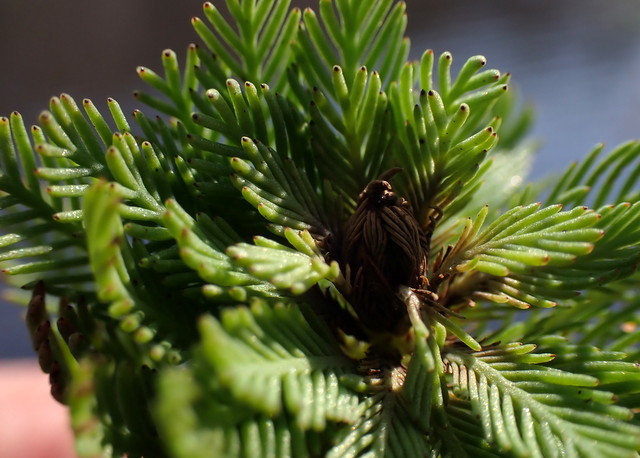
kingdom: Plantae
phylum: Tracheophyta
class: Magnoliopsida
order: Saxifragales
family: Haloragaceae
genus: Myriophyllum
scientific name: Myriophyllum aquaticum
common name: Parrot's feather
